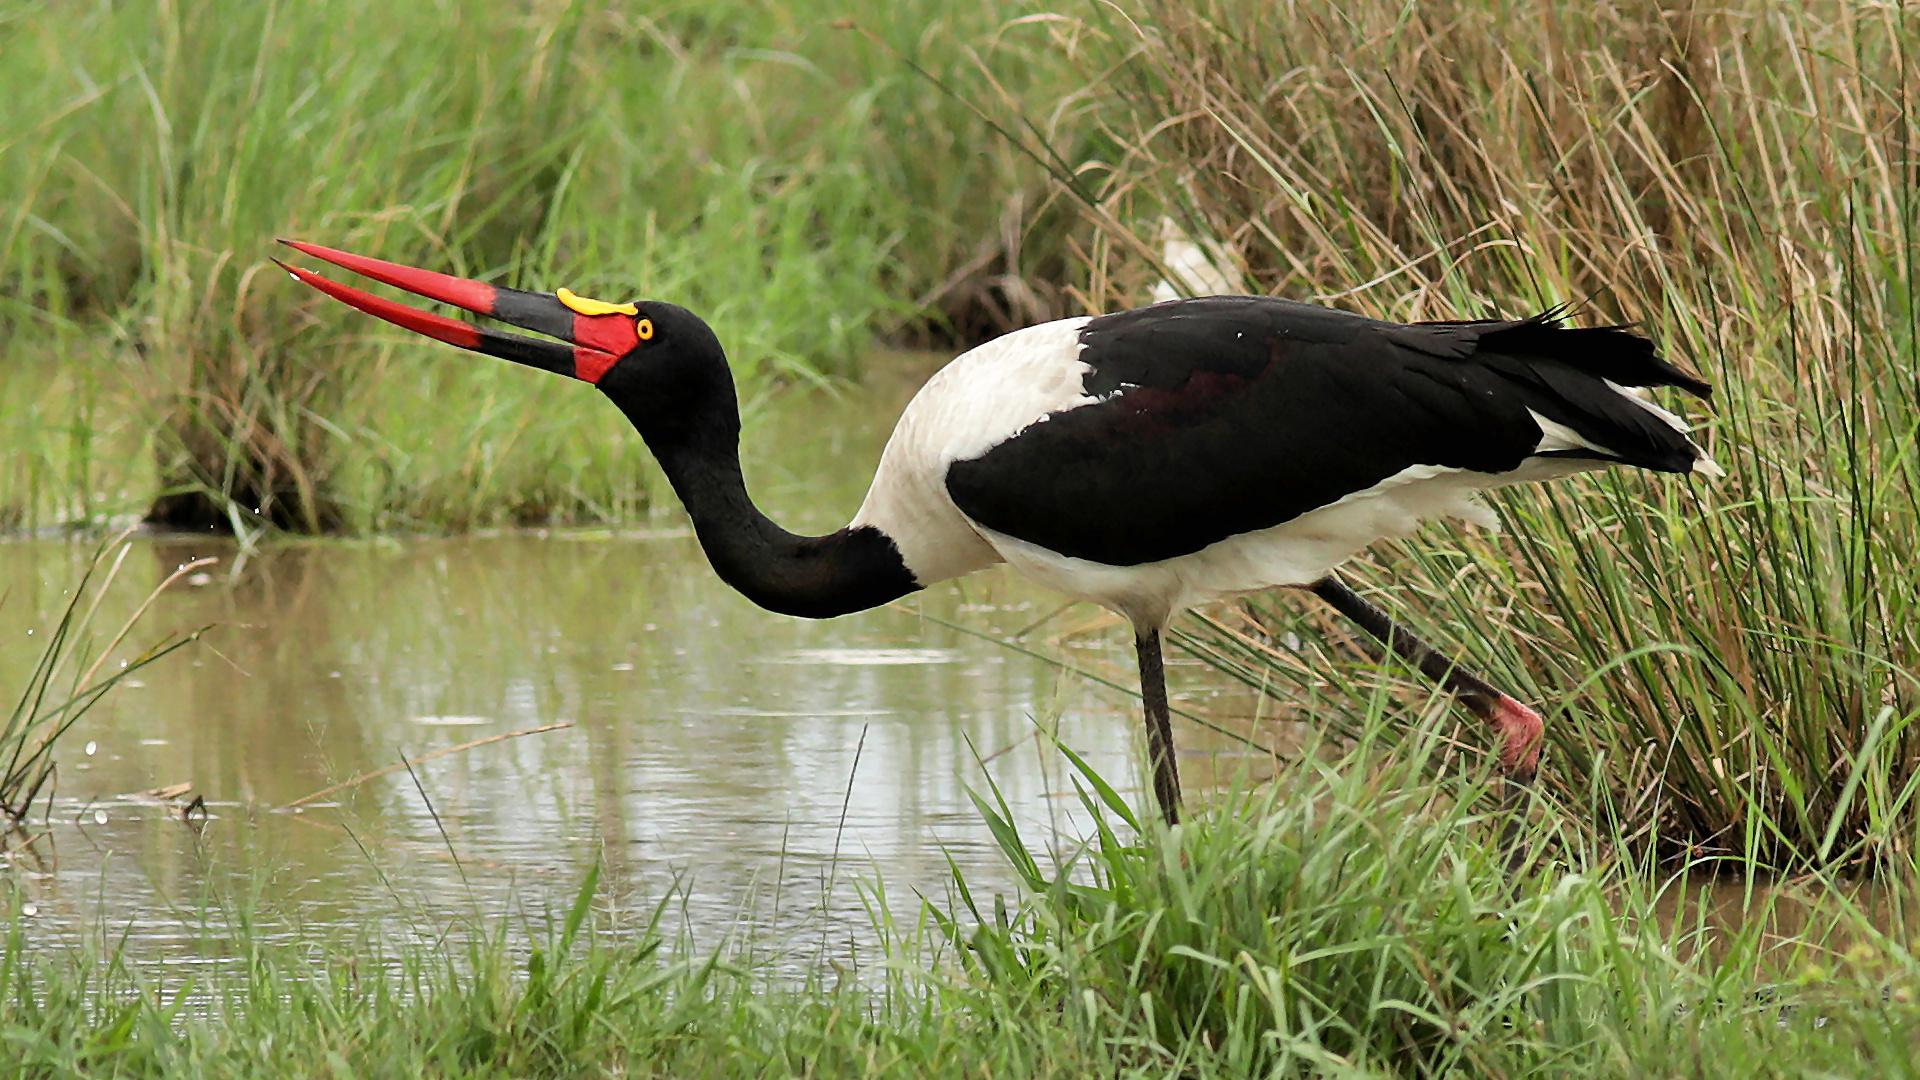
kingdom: Animalia
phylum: Chordata
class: Aves
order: Ciconiiformes
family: Ciconiidae
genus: Ephippiorhynchus
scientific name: Ephippiorhynchus senegalensis
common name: Saddle-billed stork
